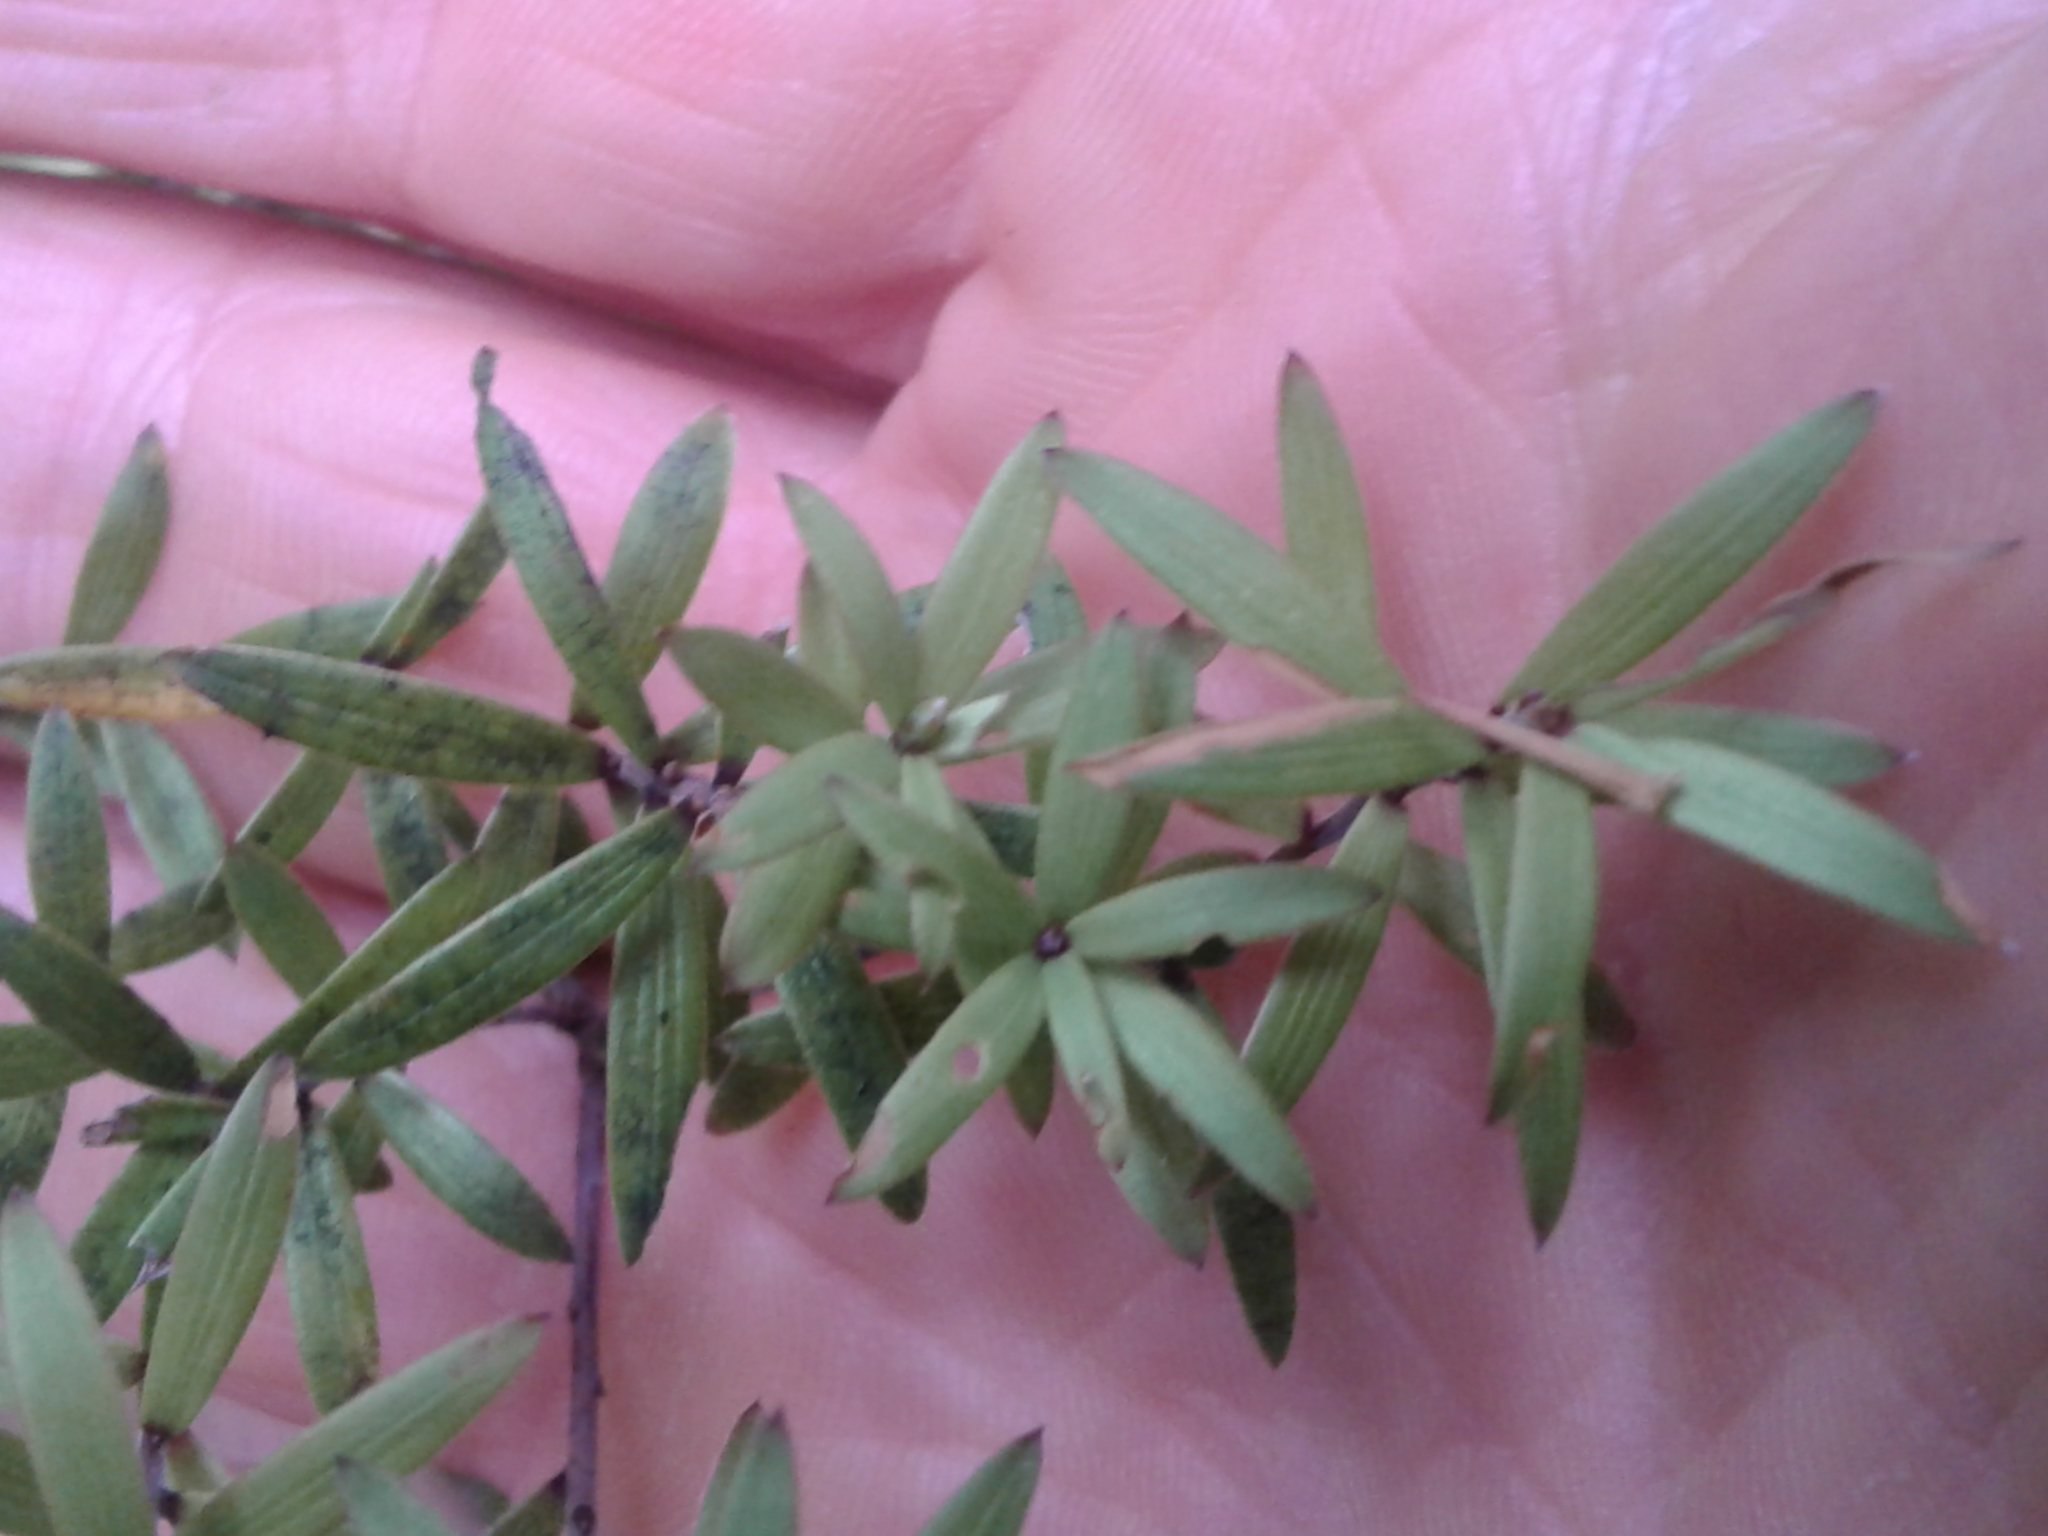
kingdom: Plantae
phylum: Tracheophyta
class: Magnoliopsida
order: Ericales
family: Ericaceae
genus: Leucopogon
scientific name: Leucopogon fasciculatus
